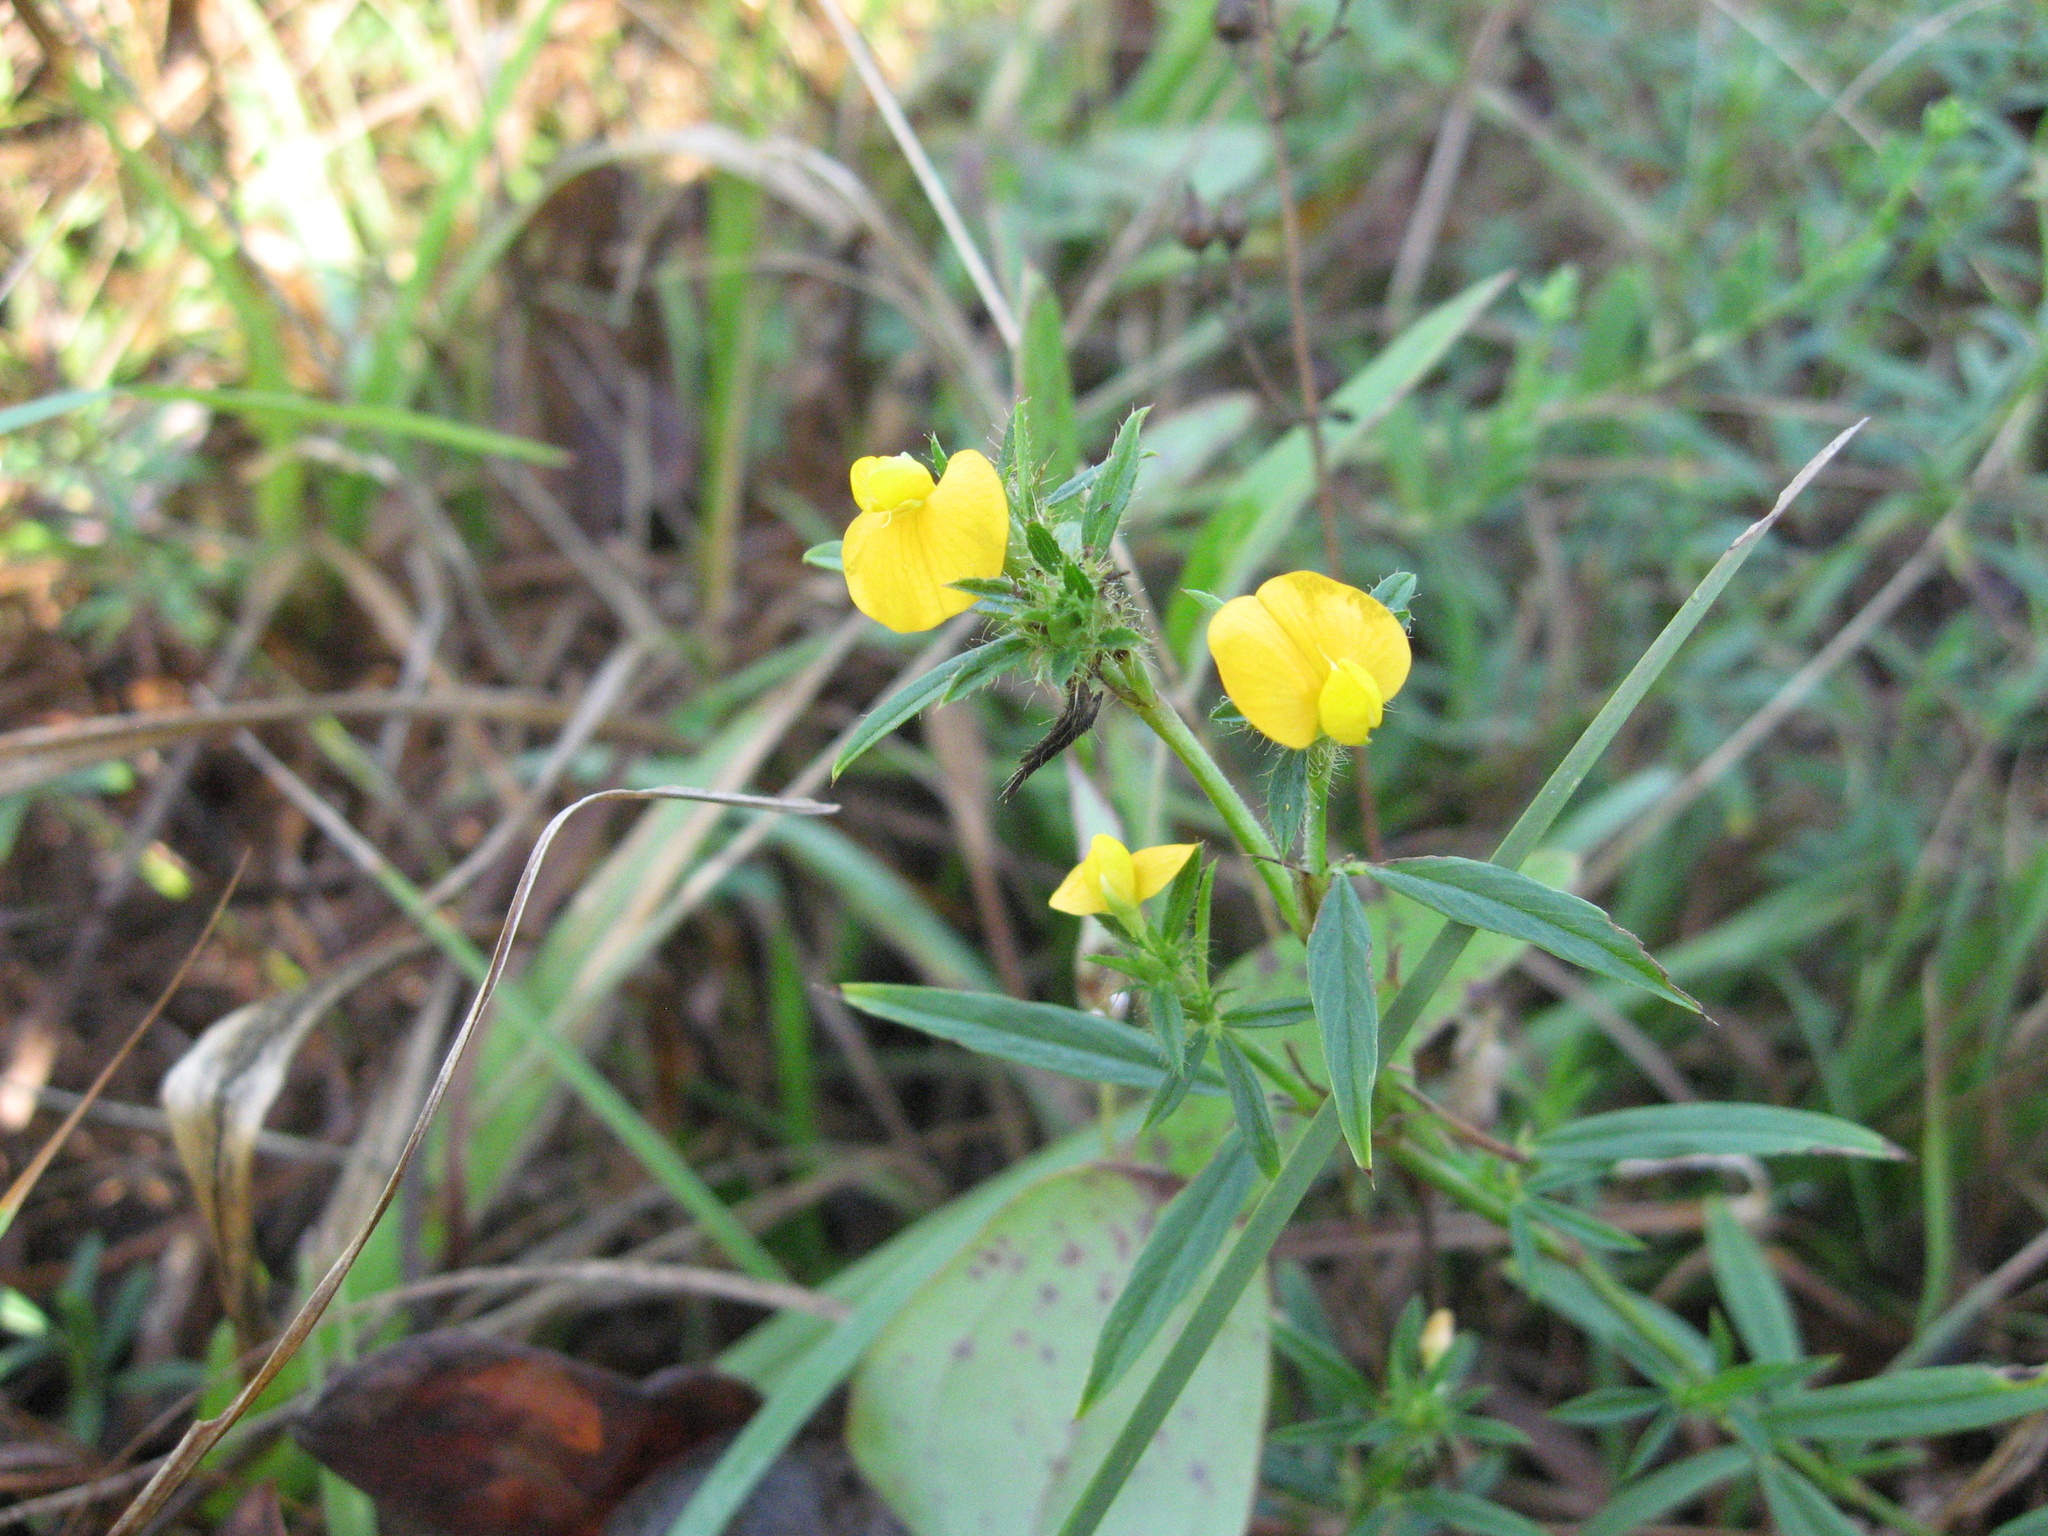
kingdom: Plantae
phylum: Tracheophyta
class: Magnoliopsida
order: Fabales
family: Fabaceae
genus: Stylosanthes
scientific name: Stylosanthes biflora
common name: Two-flower pencil-flower
